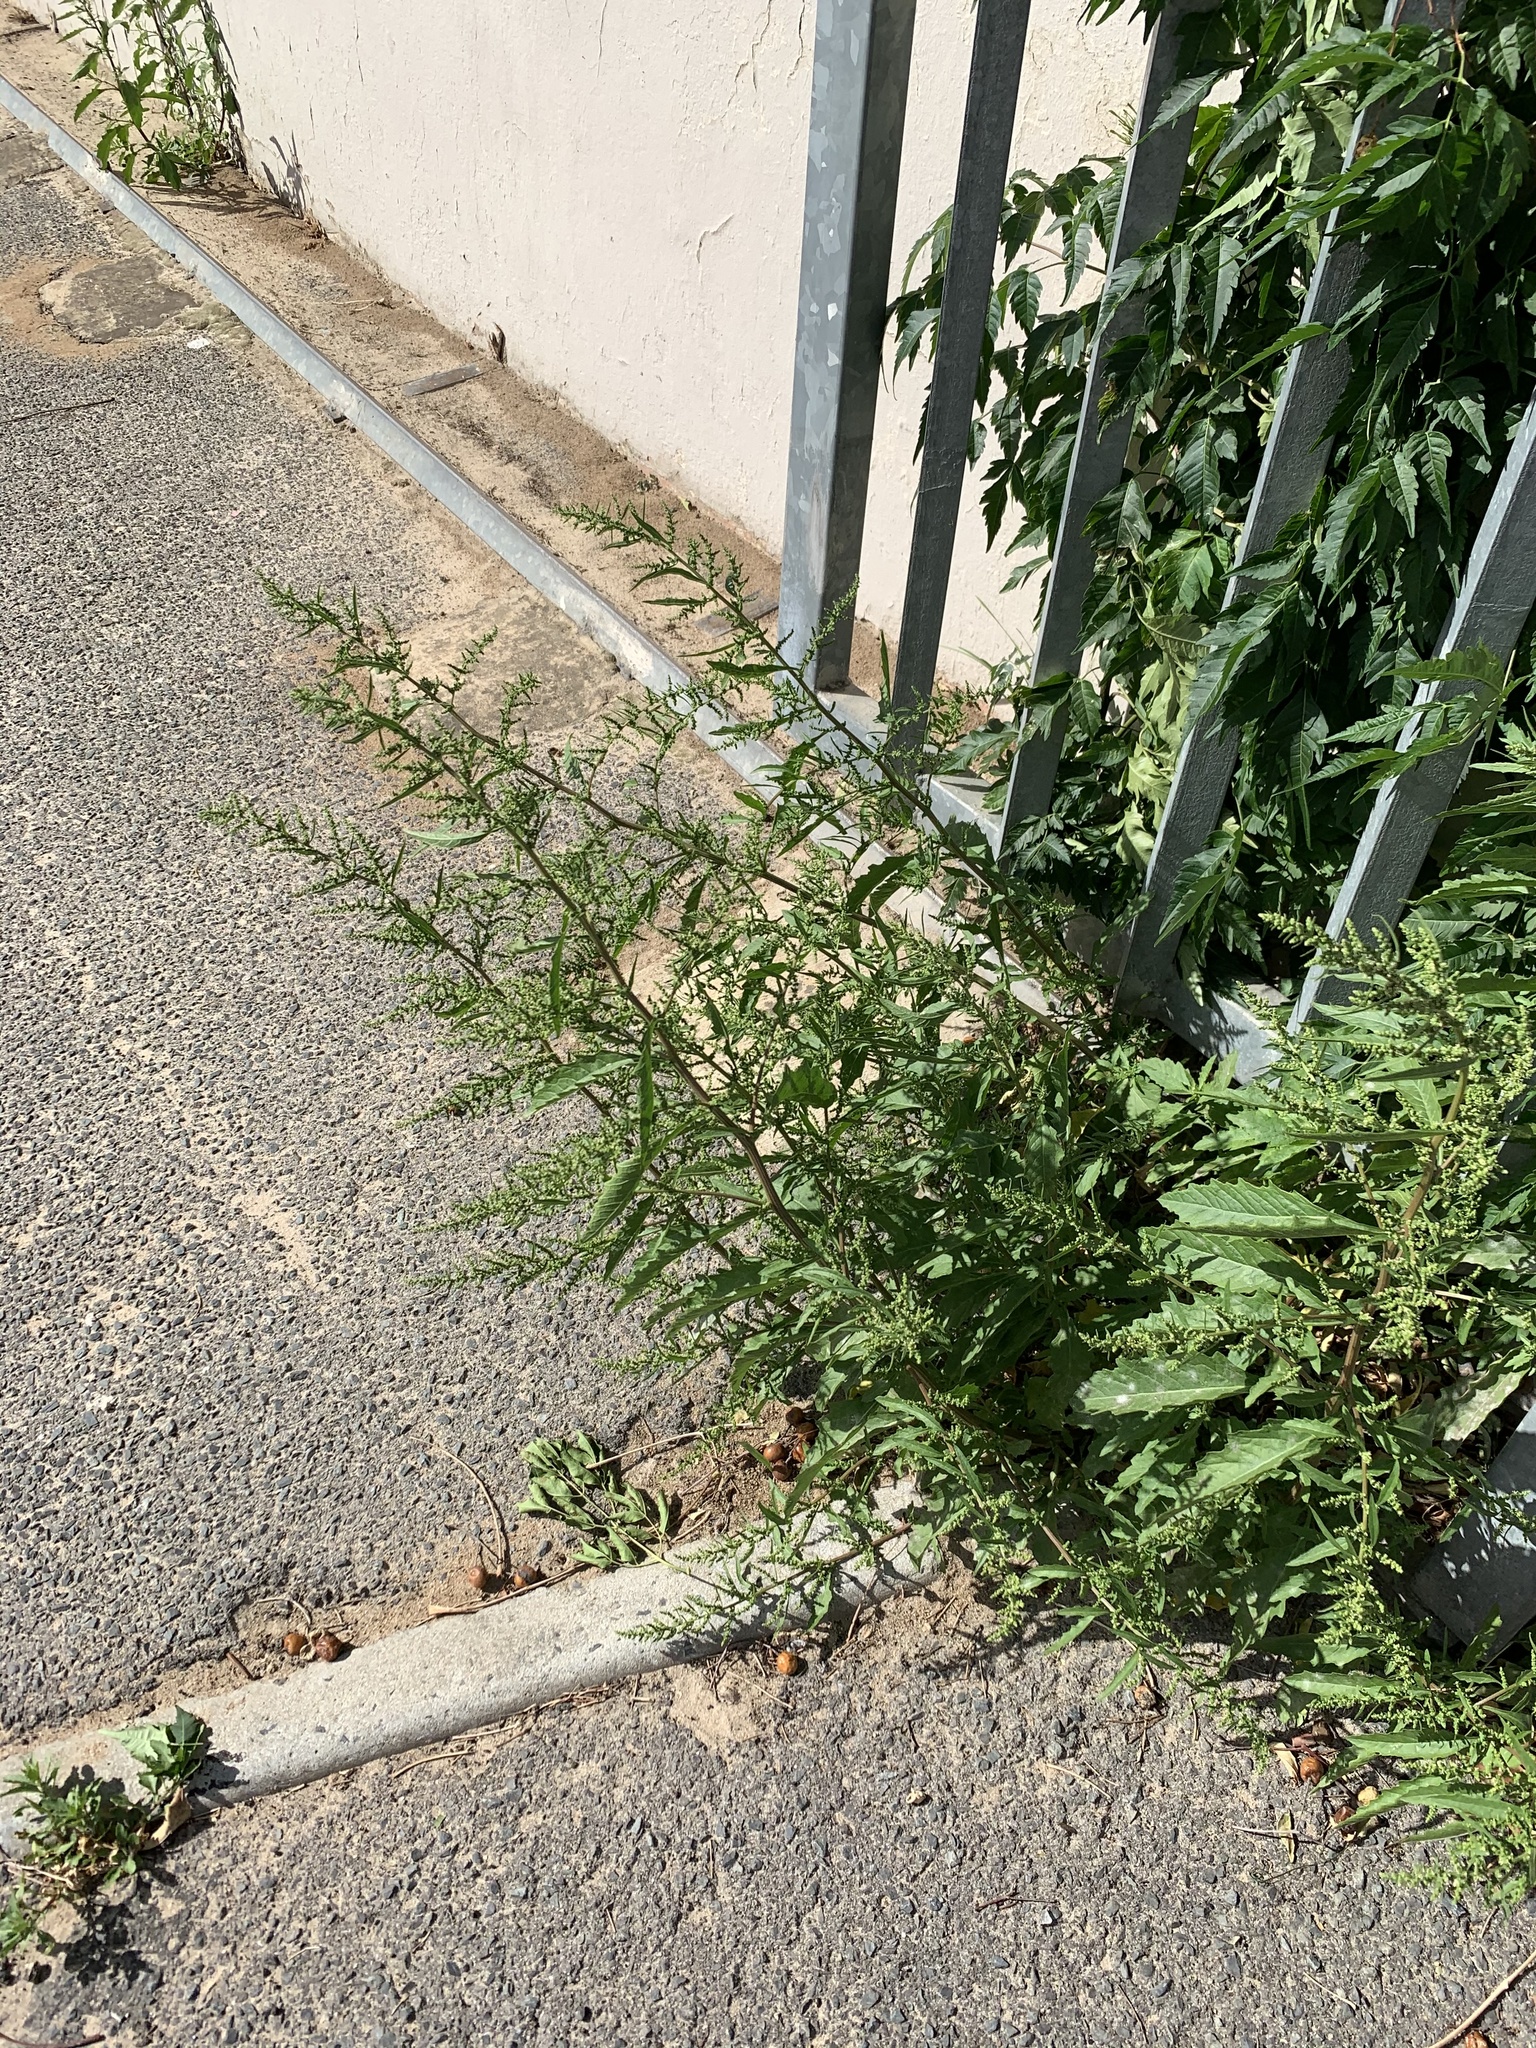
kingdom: Plantae
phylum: Tracheophyta
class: Magnoliopsida
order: Caryophyllales
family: Amaranthaceae
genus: Dysphania
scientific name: Dysphania ambrosioides
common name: Wormseed
